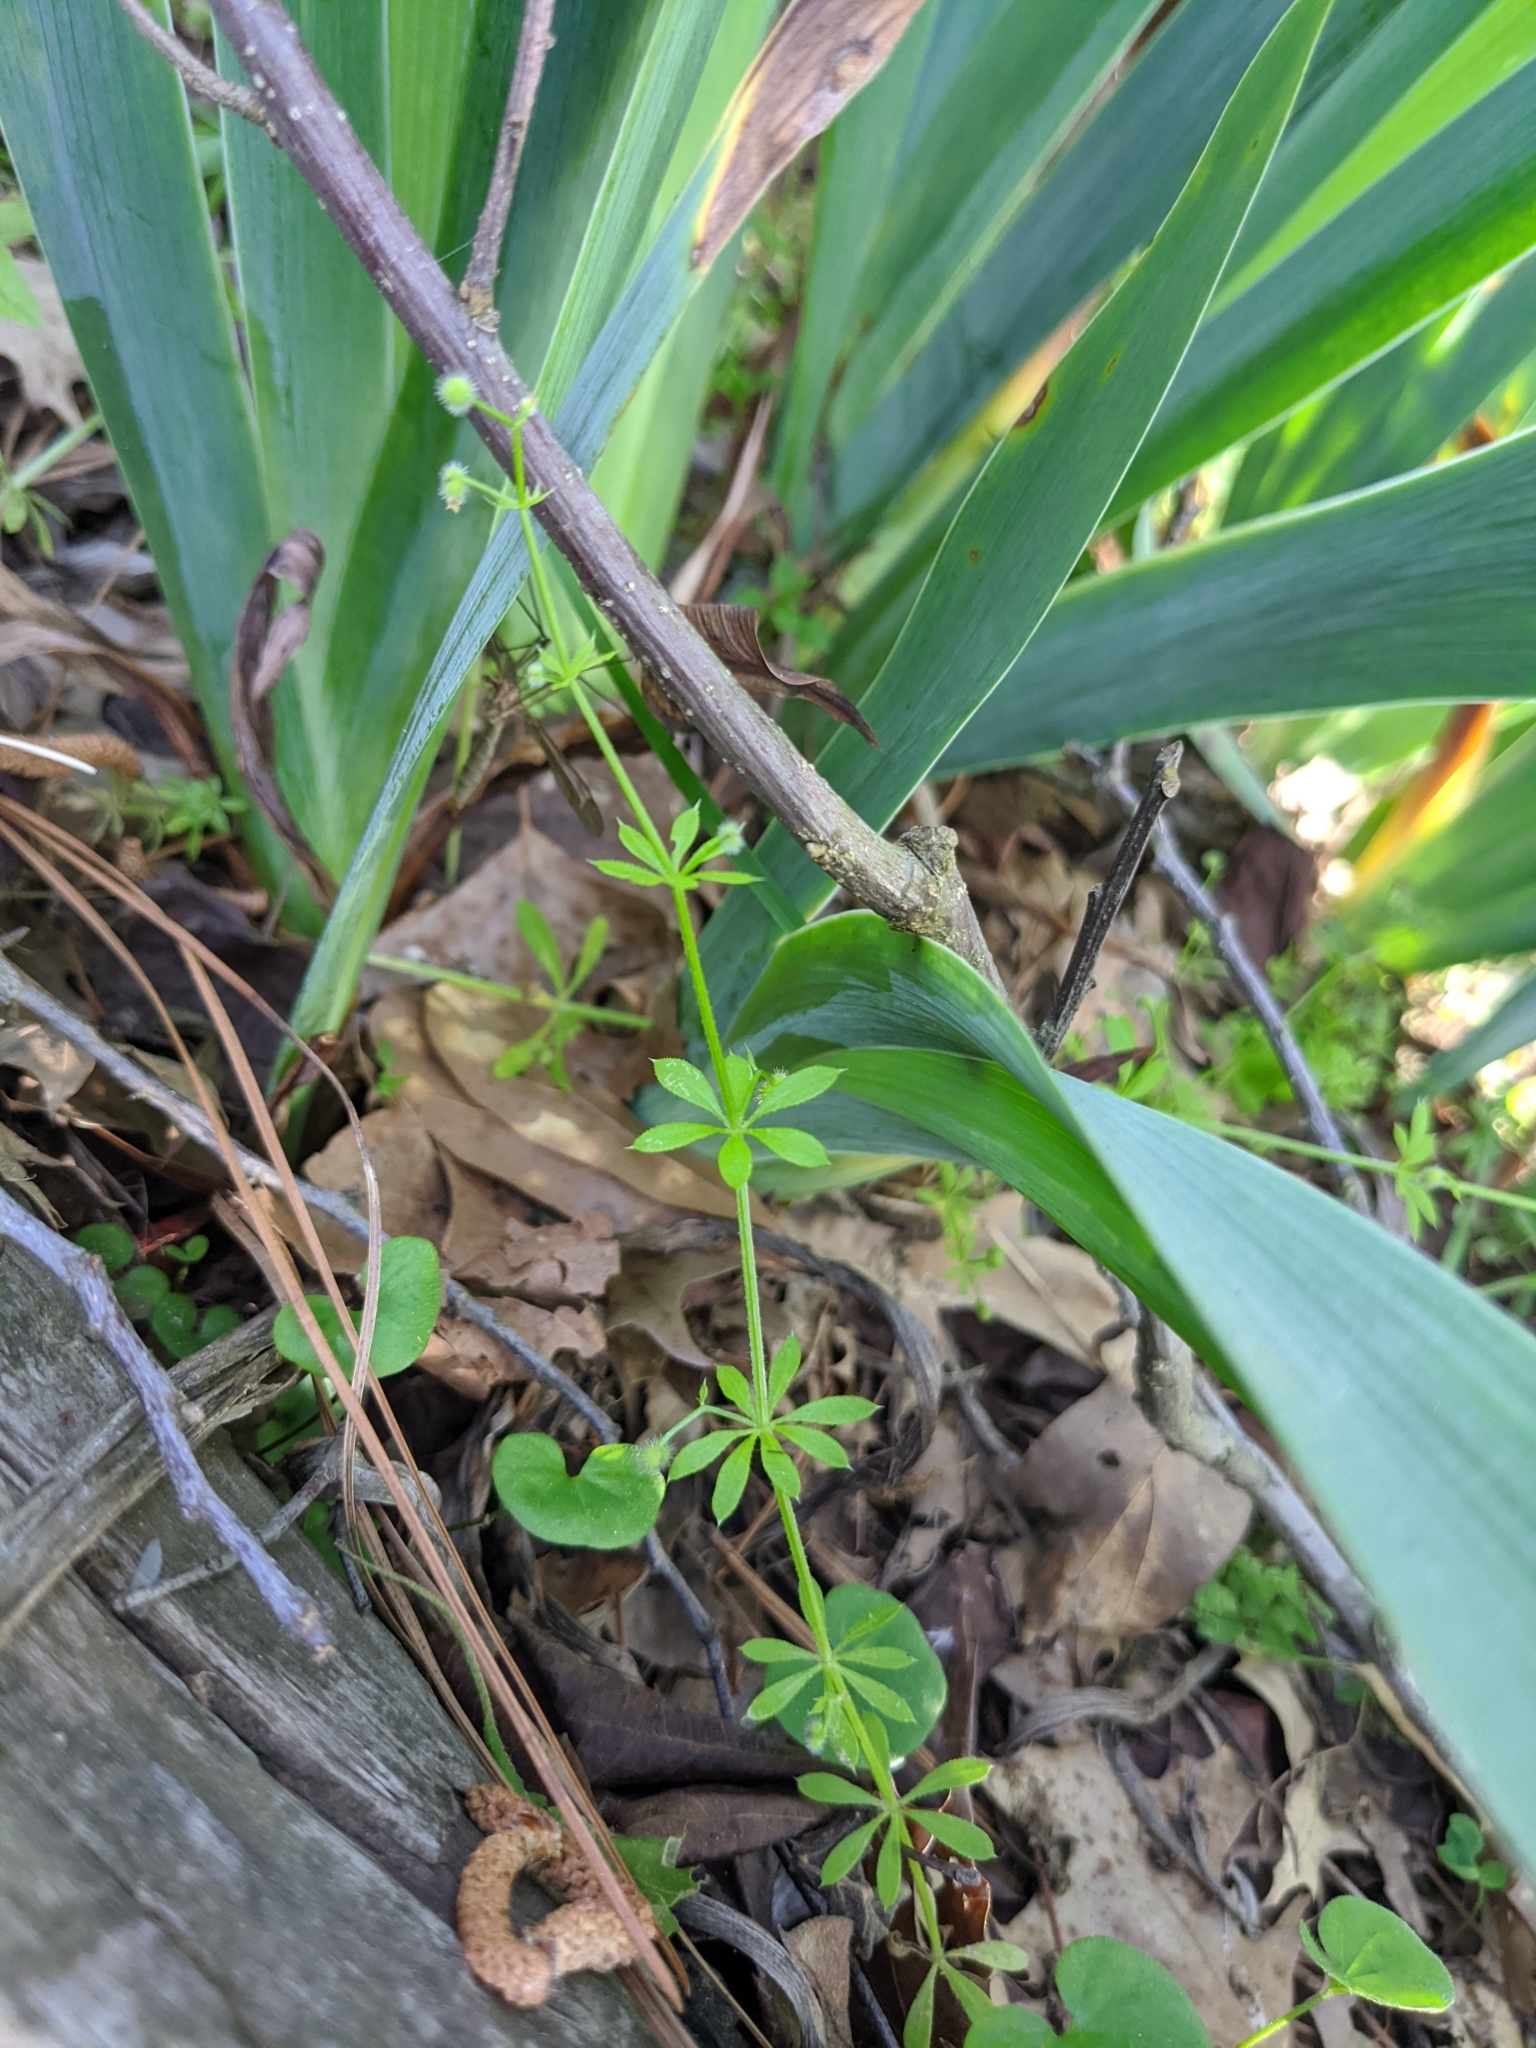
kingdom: Plantae
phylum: Tracheophyta
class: Magnoliopsida
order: Gentianales
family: Rubiaceae
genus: Galium
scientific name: Galium aparine
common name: Cleavers
